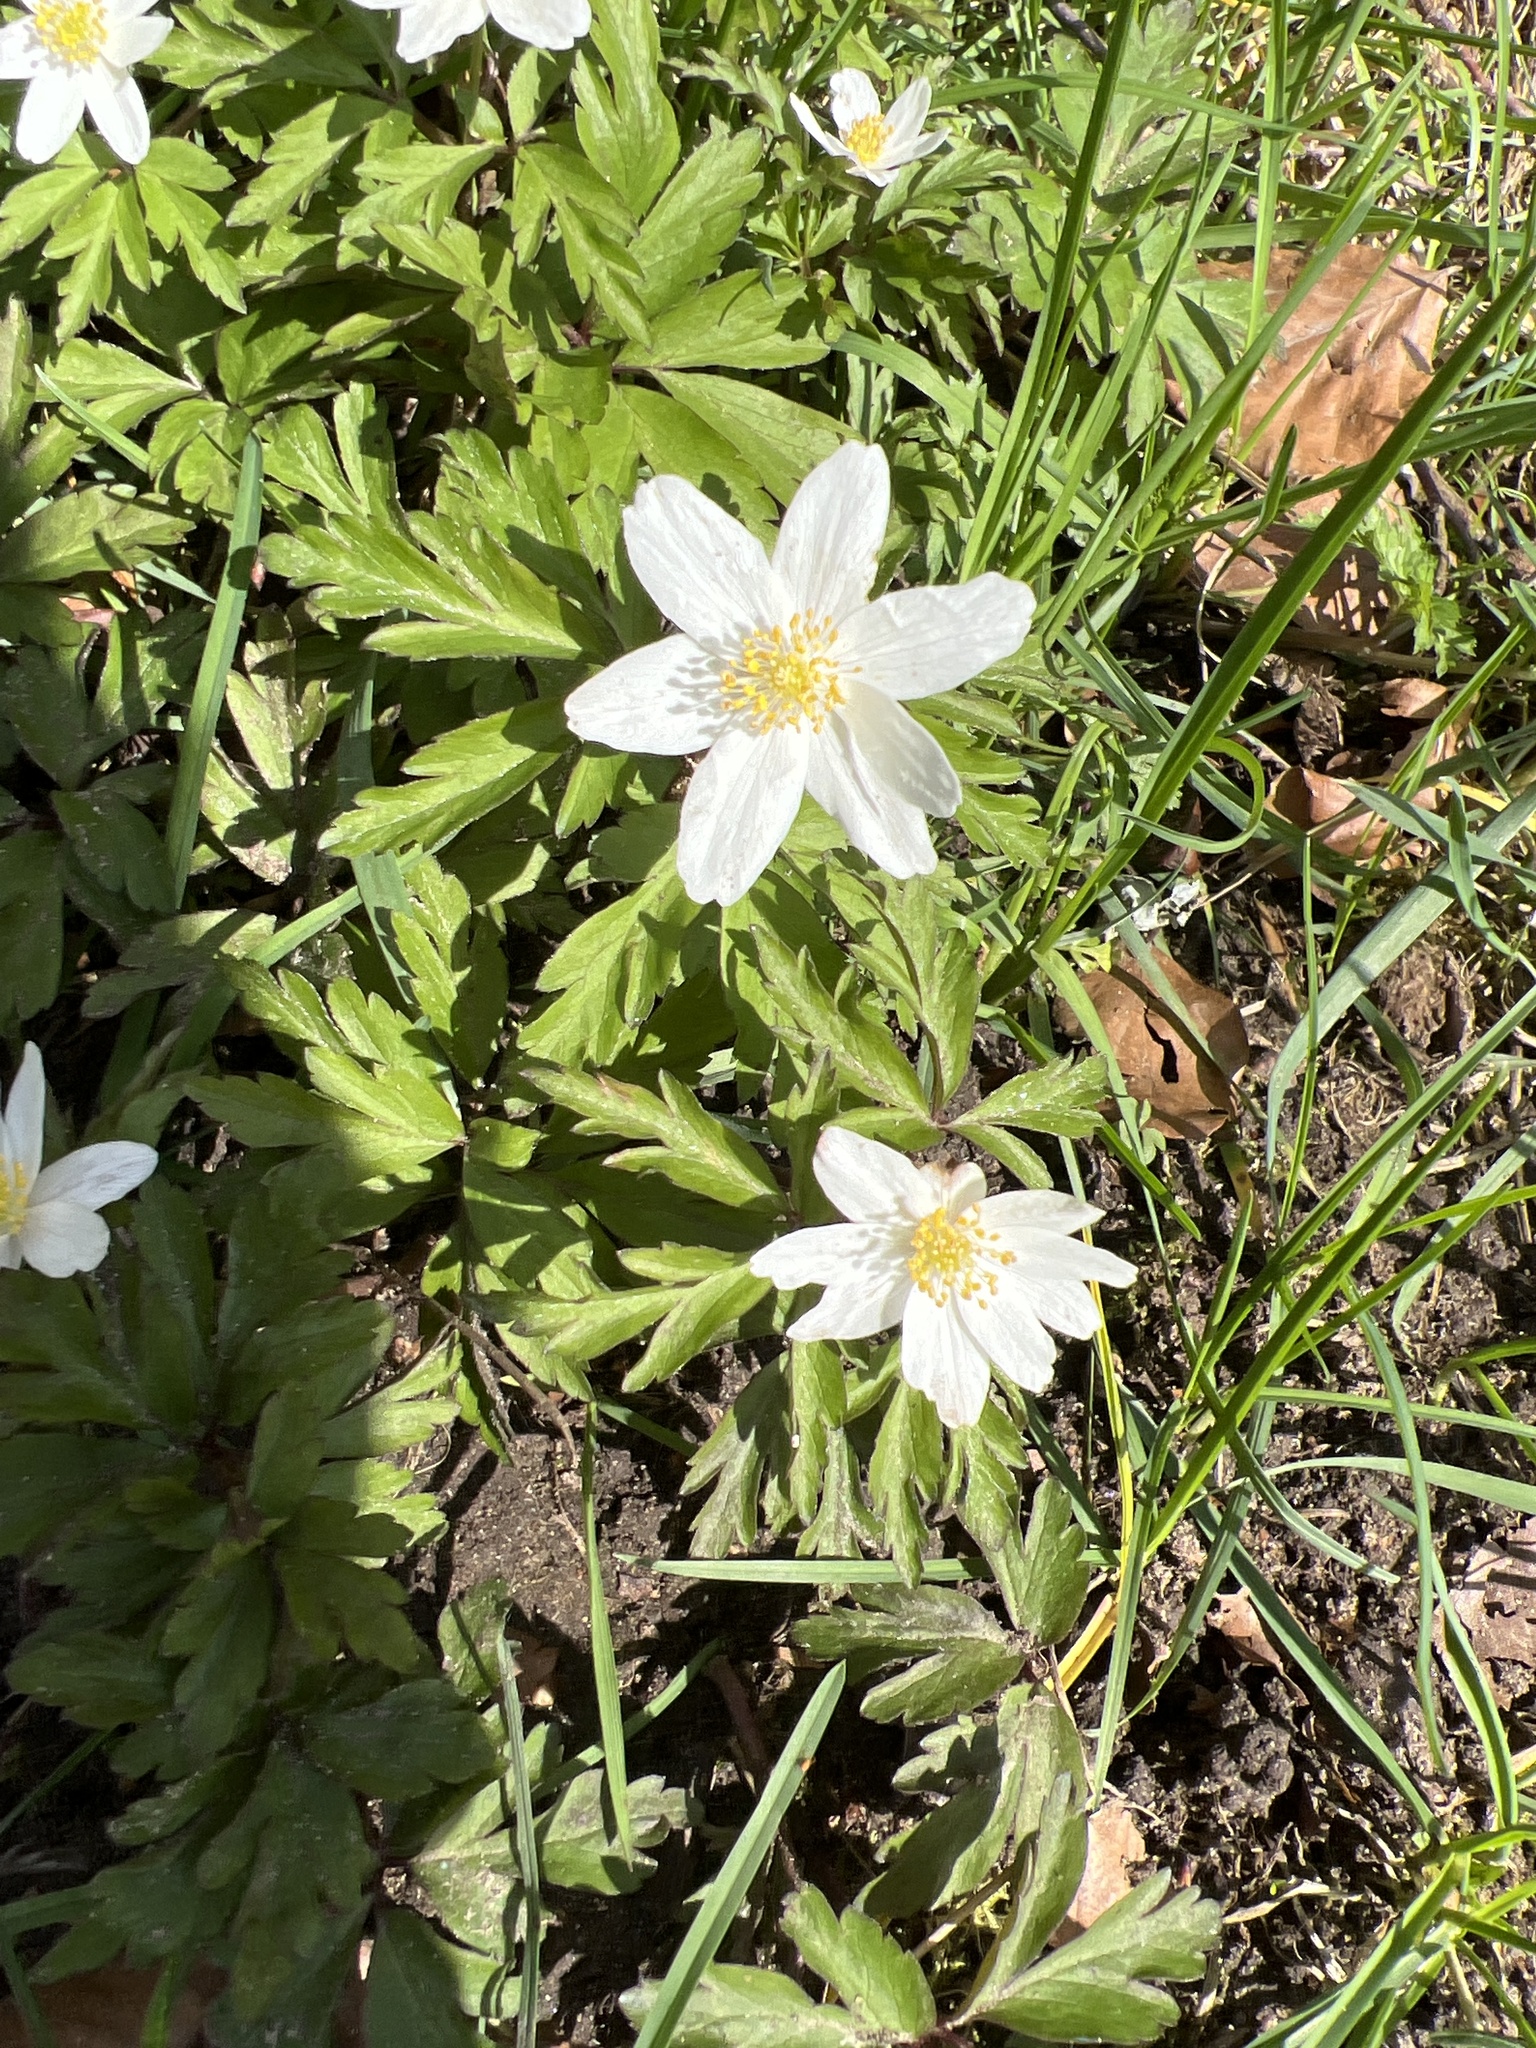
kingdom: Plantae
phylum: Tracheophyta
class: Magnoliopsida
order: Ranunculales
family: Ranunculaceae
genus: Anemone
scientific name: Anemone nemorosa
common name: Wood anemone
